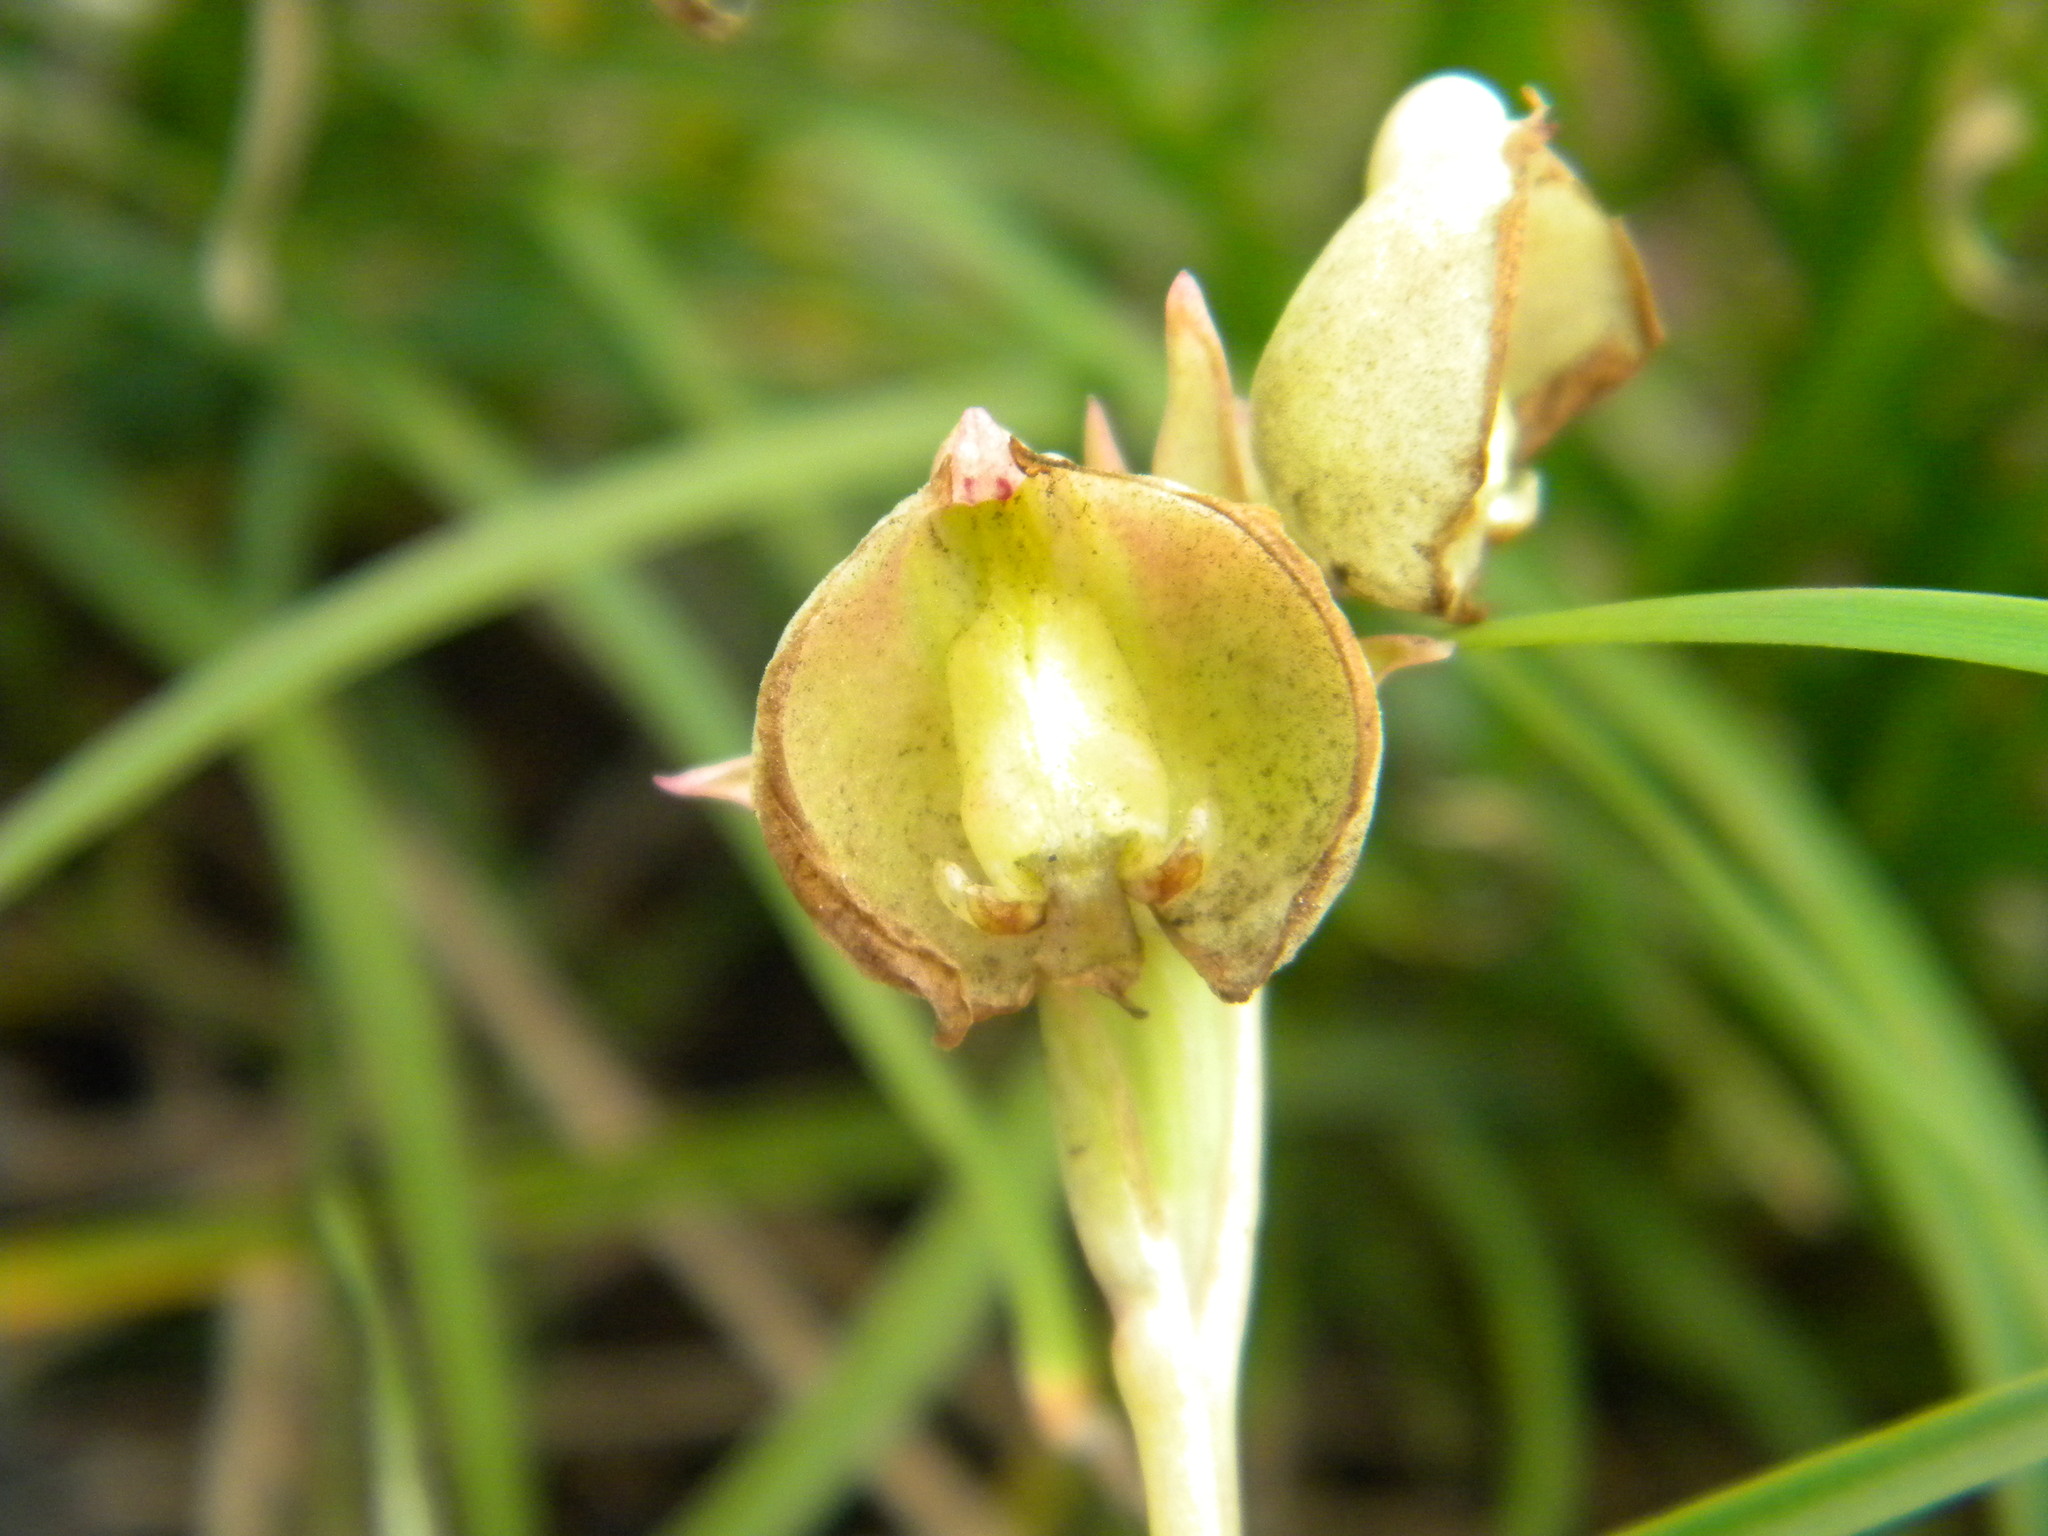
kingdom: Plantae
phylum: Tracheophyta
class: Liliopsida
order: Asparagales
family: Orchidaceae
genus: Pterygodium
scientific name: Pterygodium catholicum
